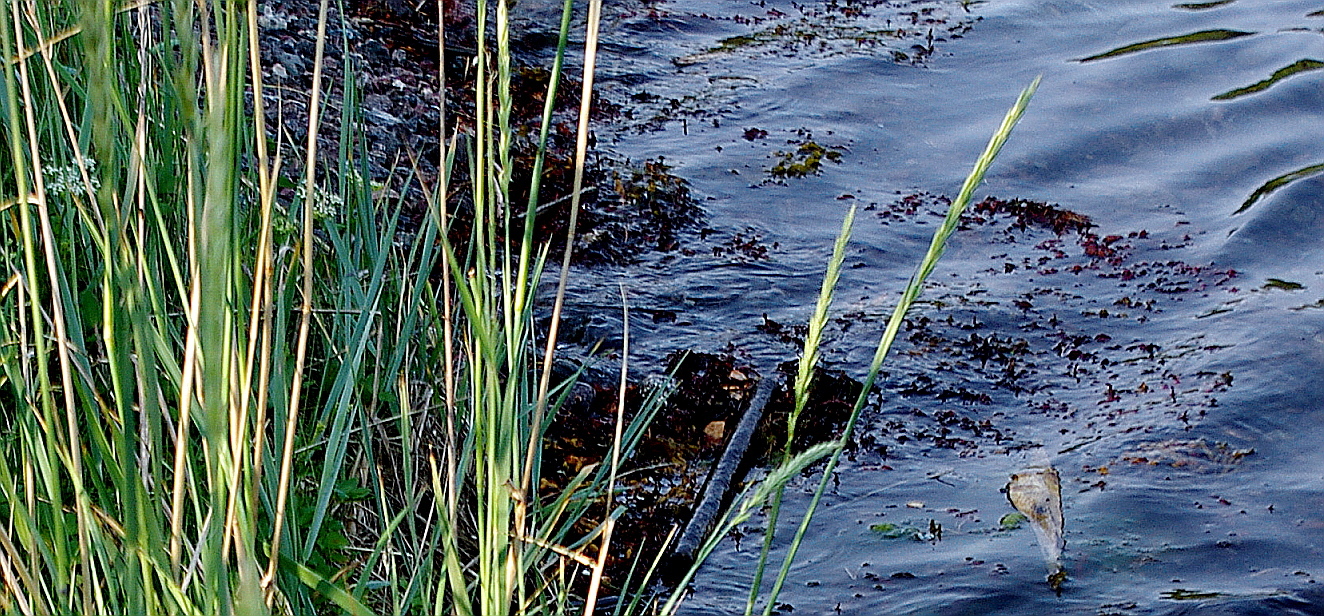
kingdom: Plantae
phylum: Tracheophyta
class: Liliopsida
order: Poales
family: Poaceae
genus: Leymus
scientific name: Leymus arenarius
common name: Lyme-grass
